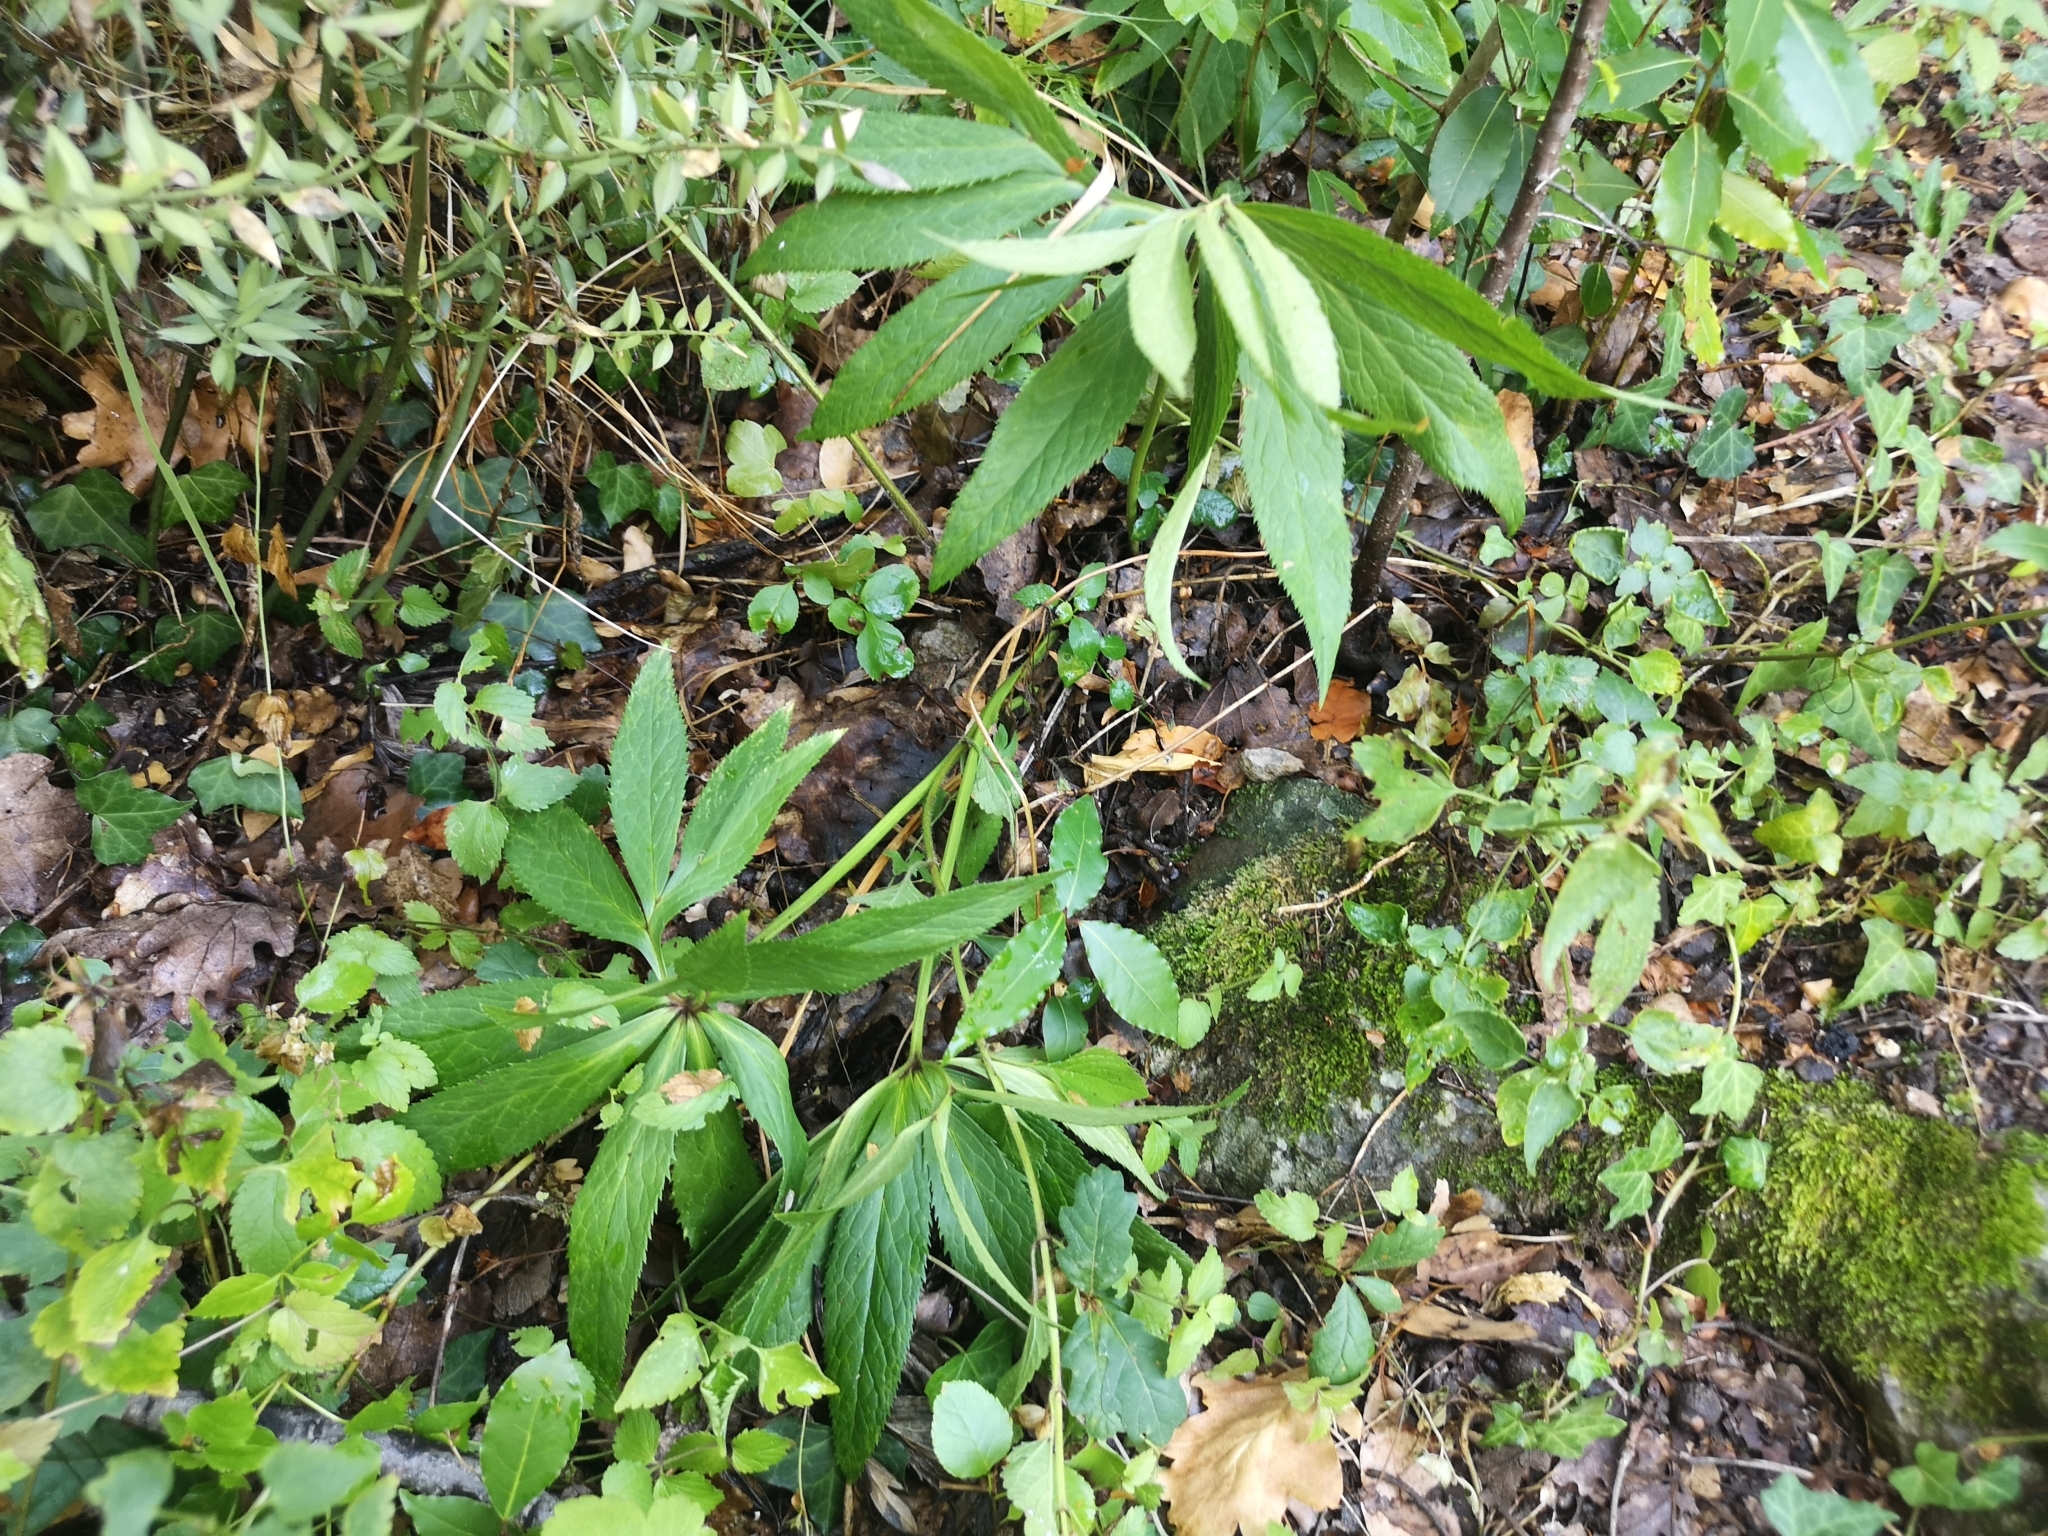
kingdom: Plantae
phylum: Tracheophyta
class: Magnoliopsida
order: Ranunculales
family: Ranunculaceae
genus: Helleborus
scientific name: Helleborus bocconei
